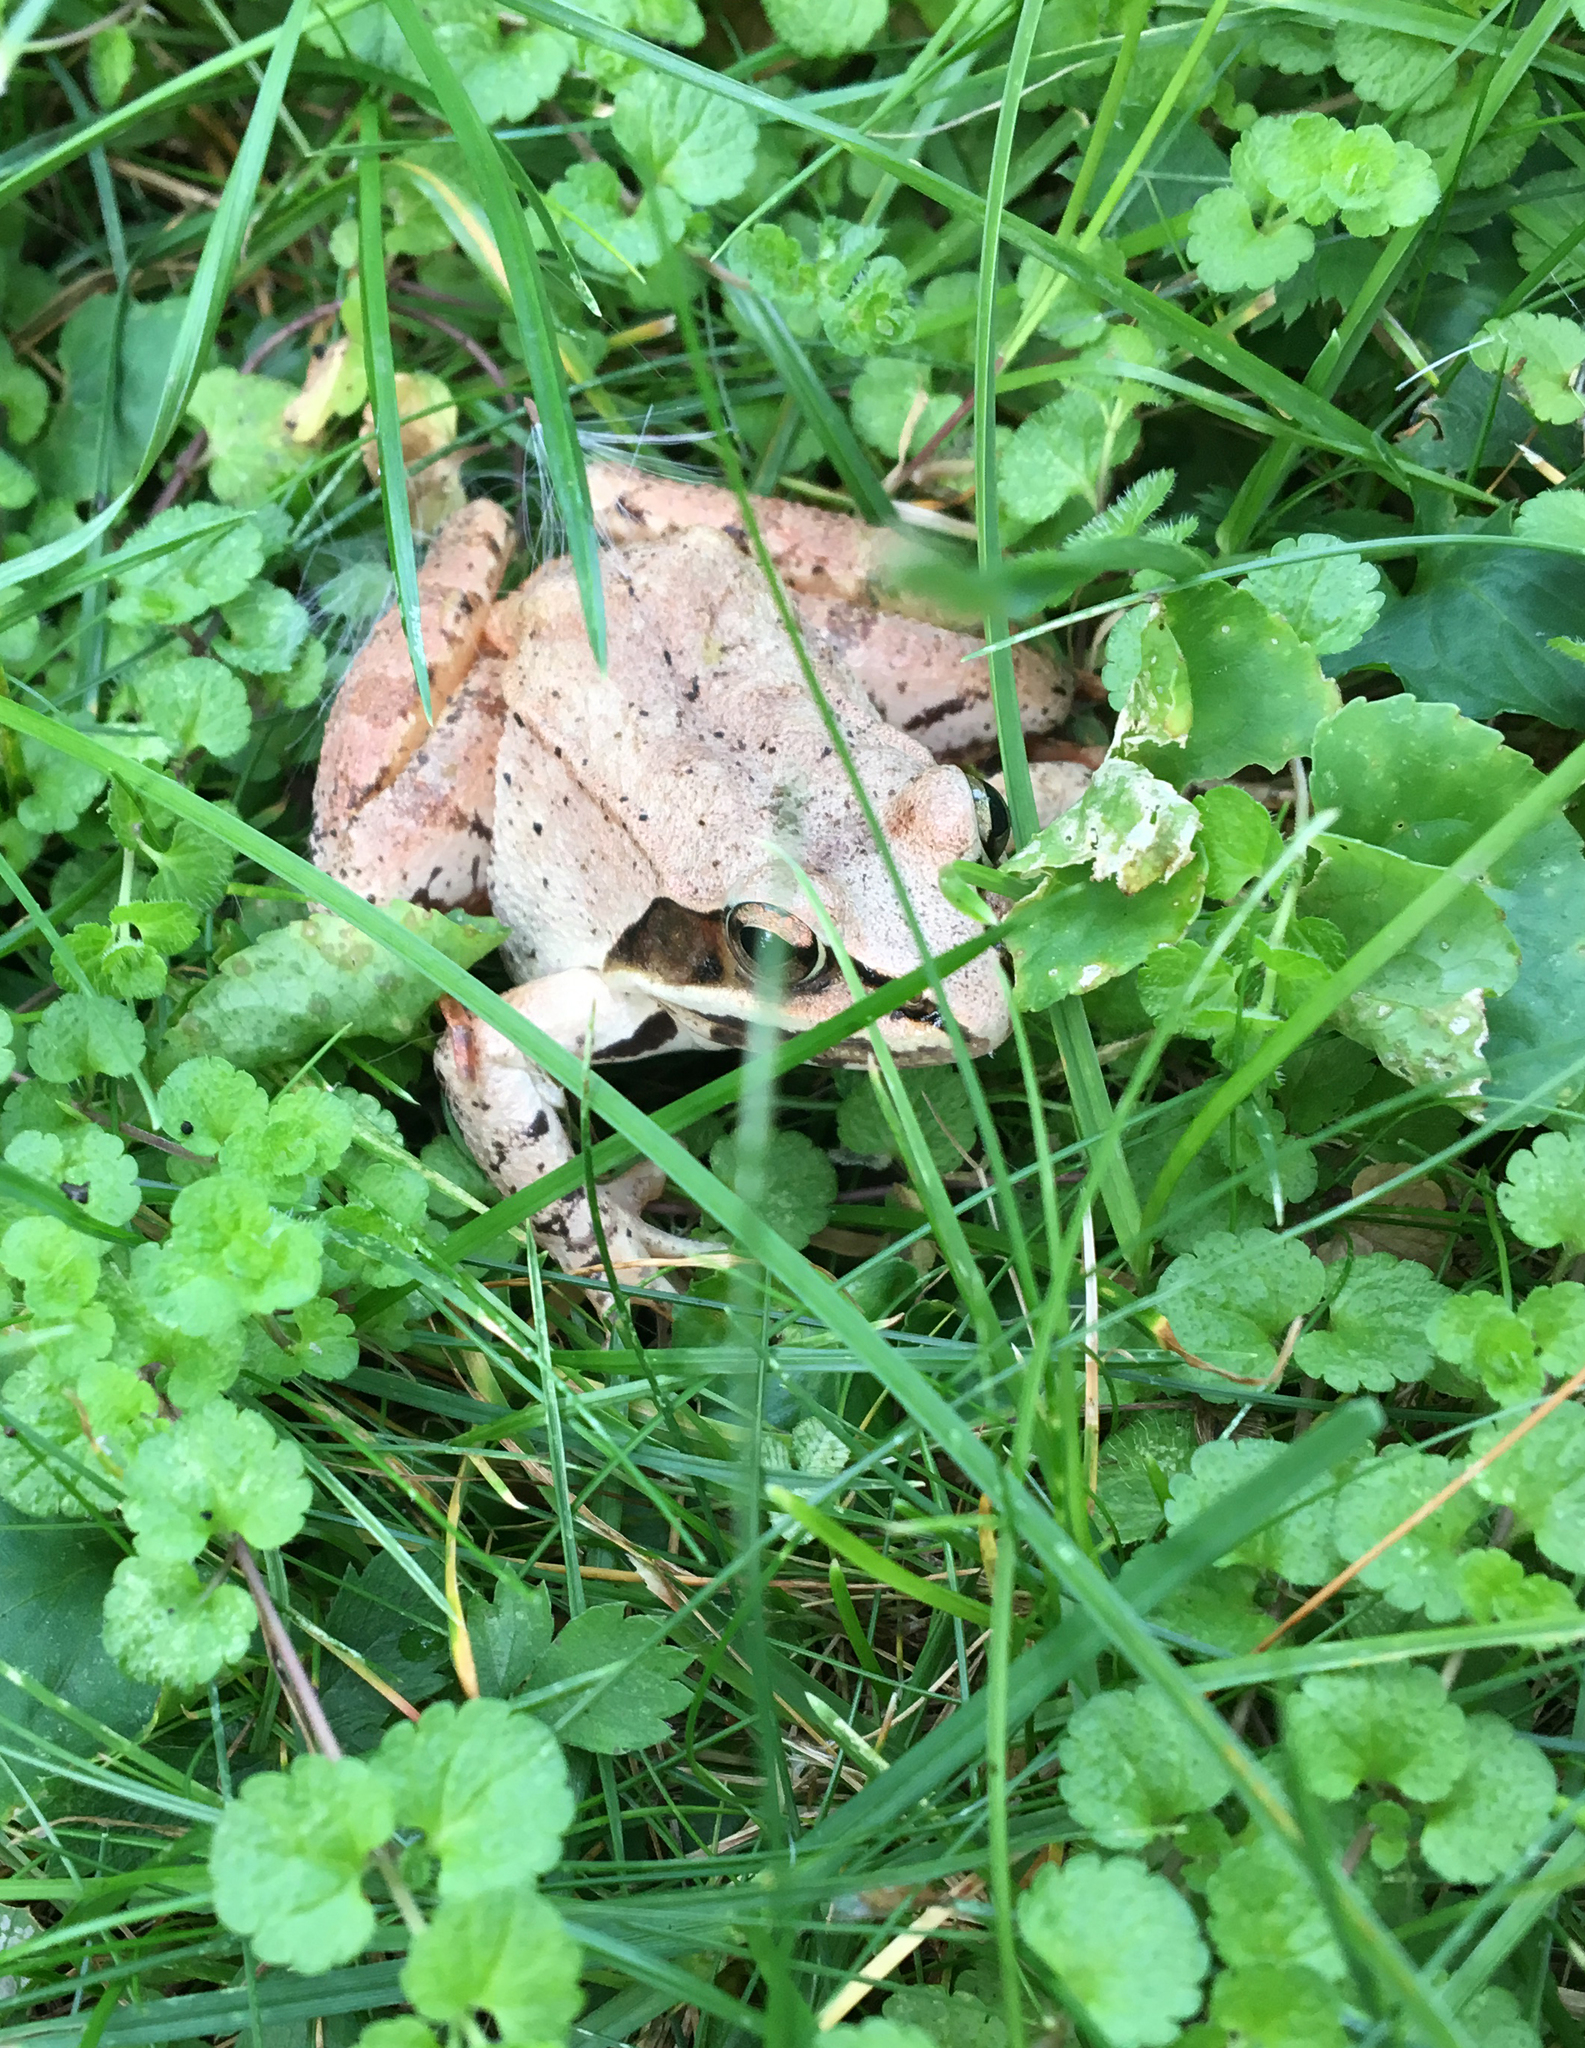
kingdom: Animalia
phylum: Chordata
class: Amphibia
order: Anura
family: Ranidae
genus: Lithobates
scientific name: Lithobates sylvaticus
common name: Wood frog
